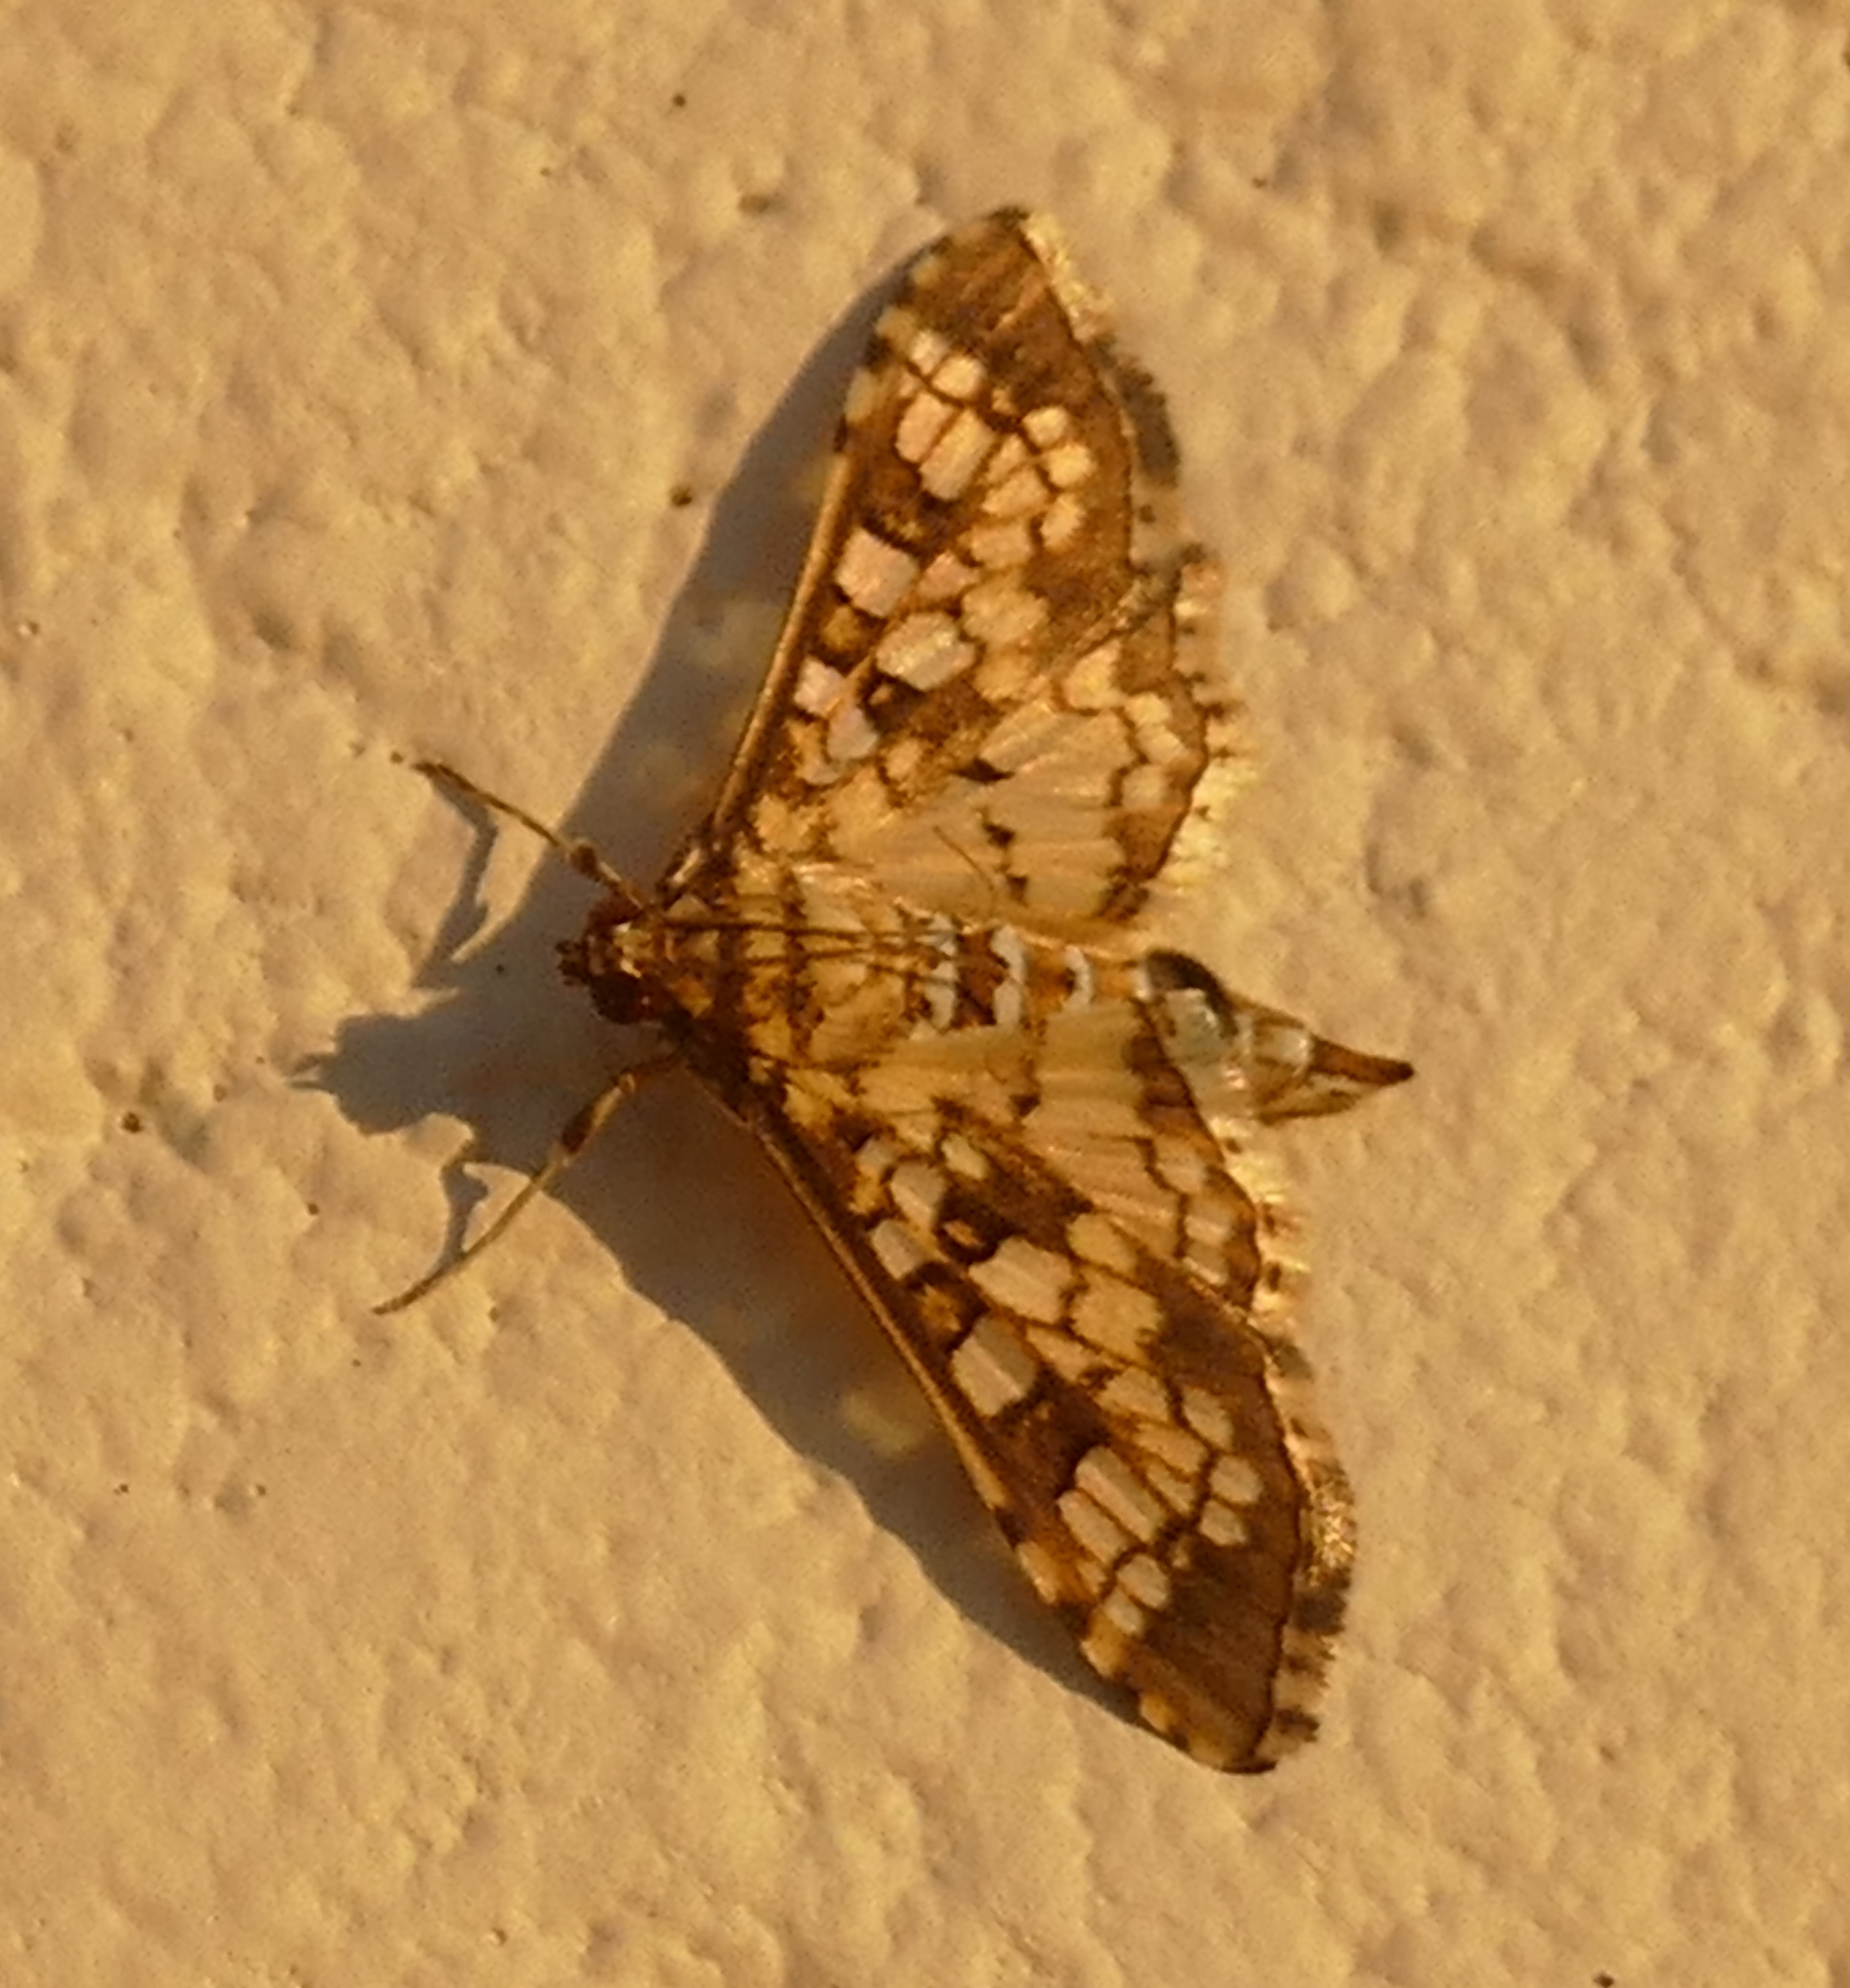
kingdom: Animalia
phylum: Arthropoda
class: Insecta
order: Lepidoptera
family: Crambidae
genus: Samea
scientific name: Samea ecclesialis
